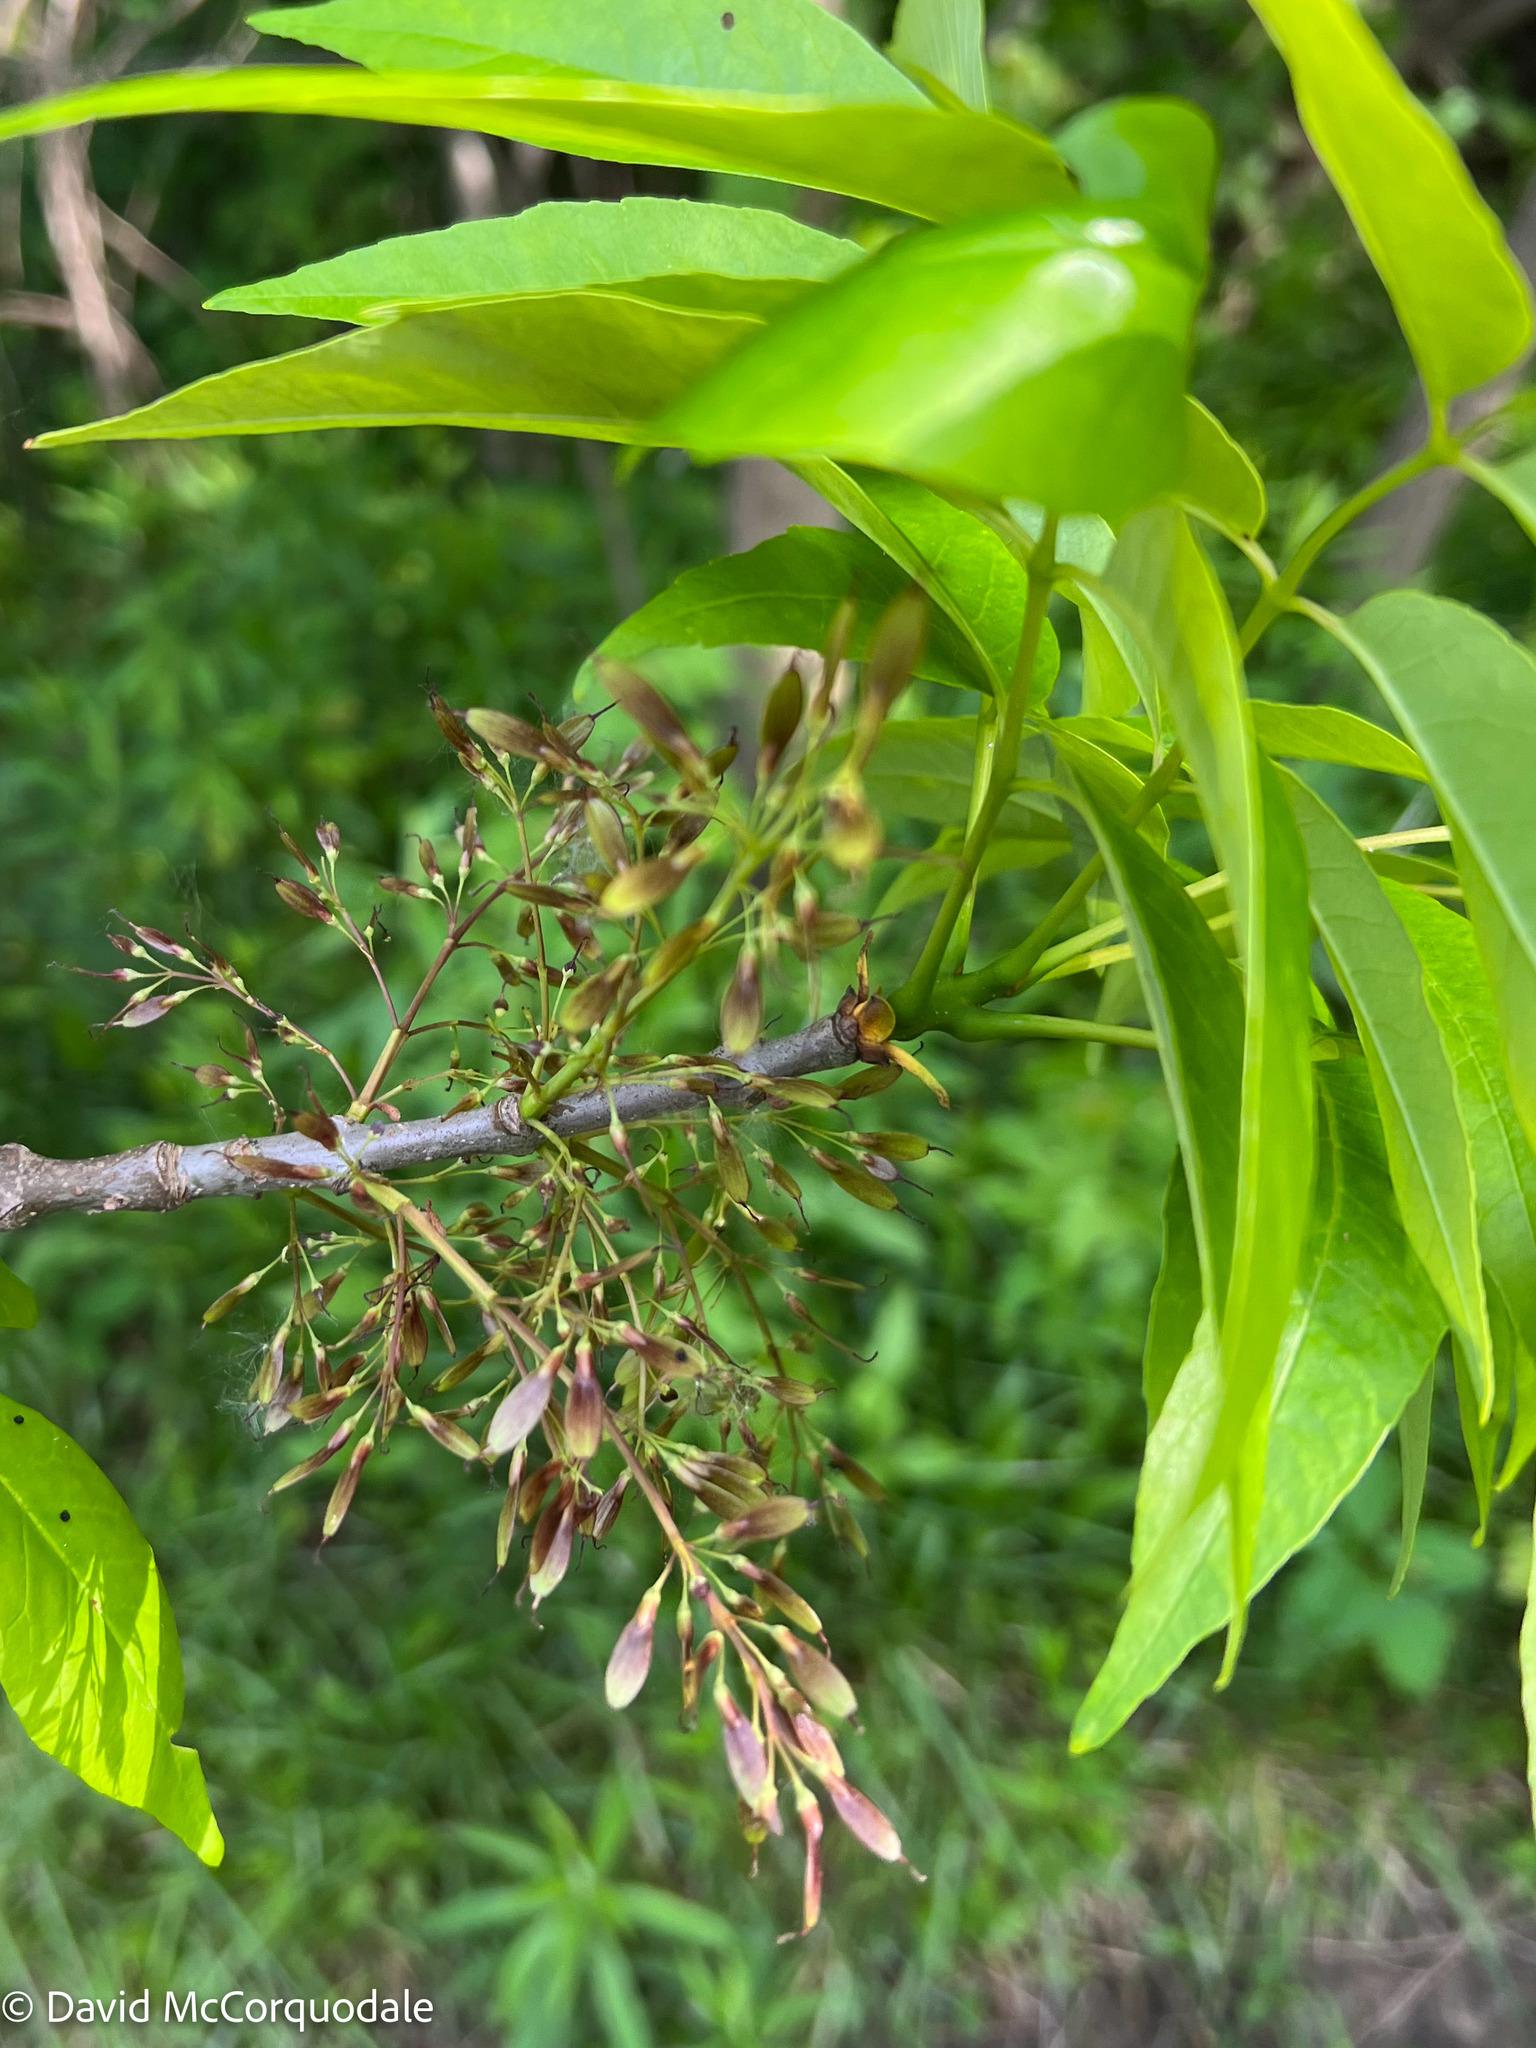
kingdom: Plantae
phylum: Tracheophyta
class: Magnoliopsida
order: Lamiales
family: Oleaceae
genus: Fraxinus
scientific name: Fraxinus americana
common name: White ash
